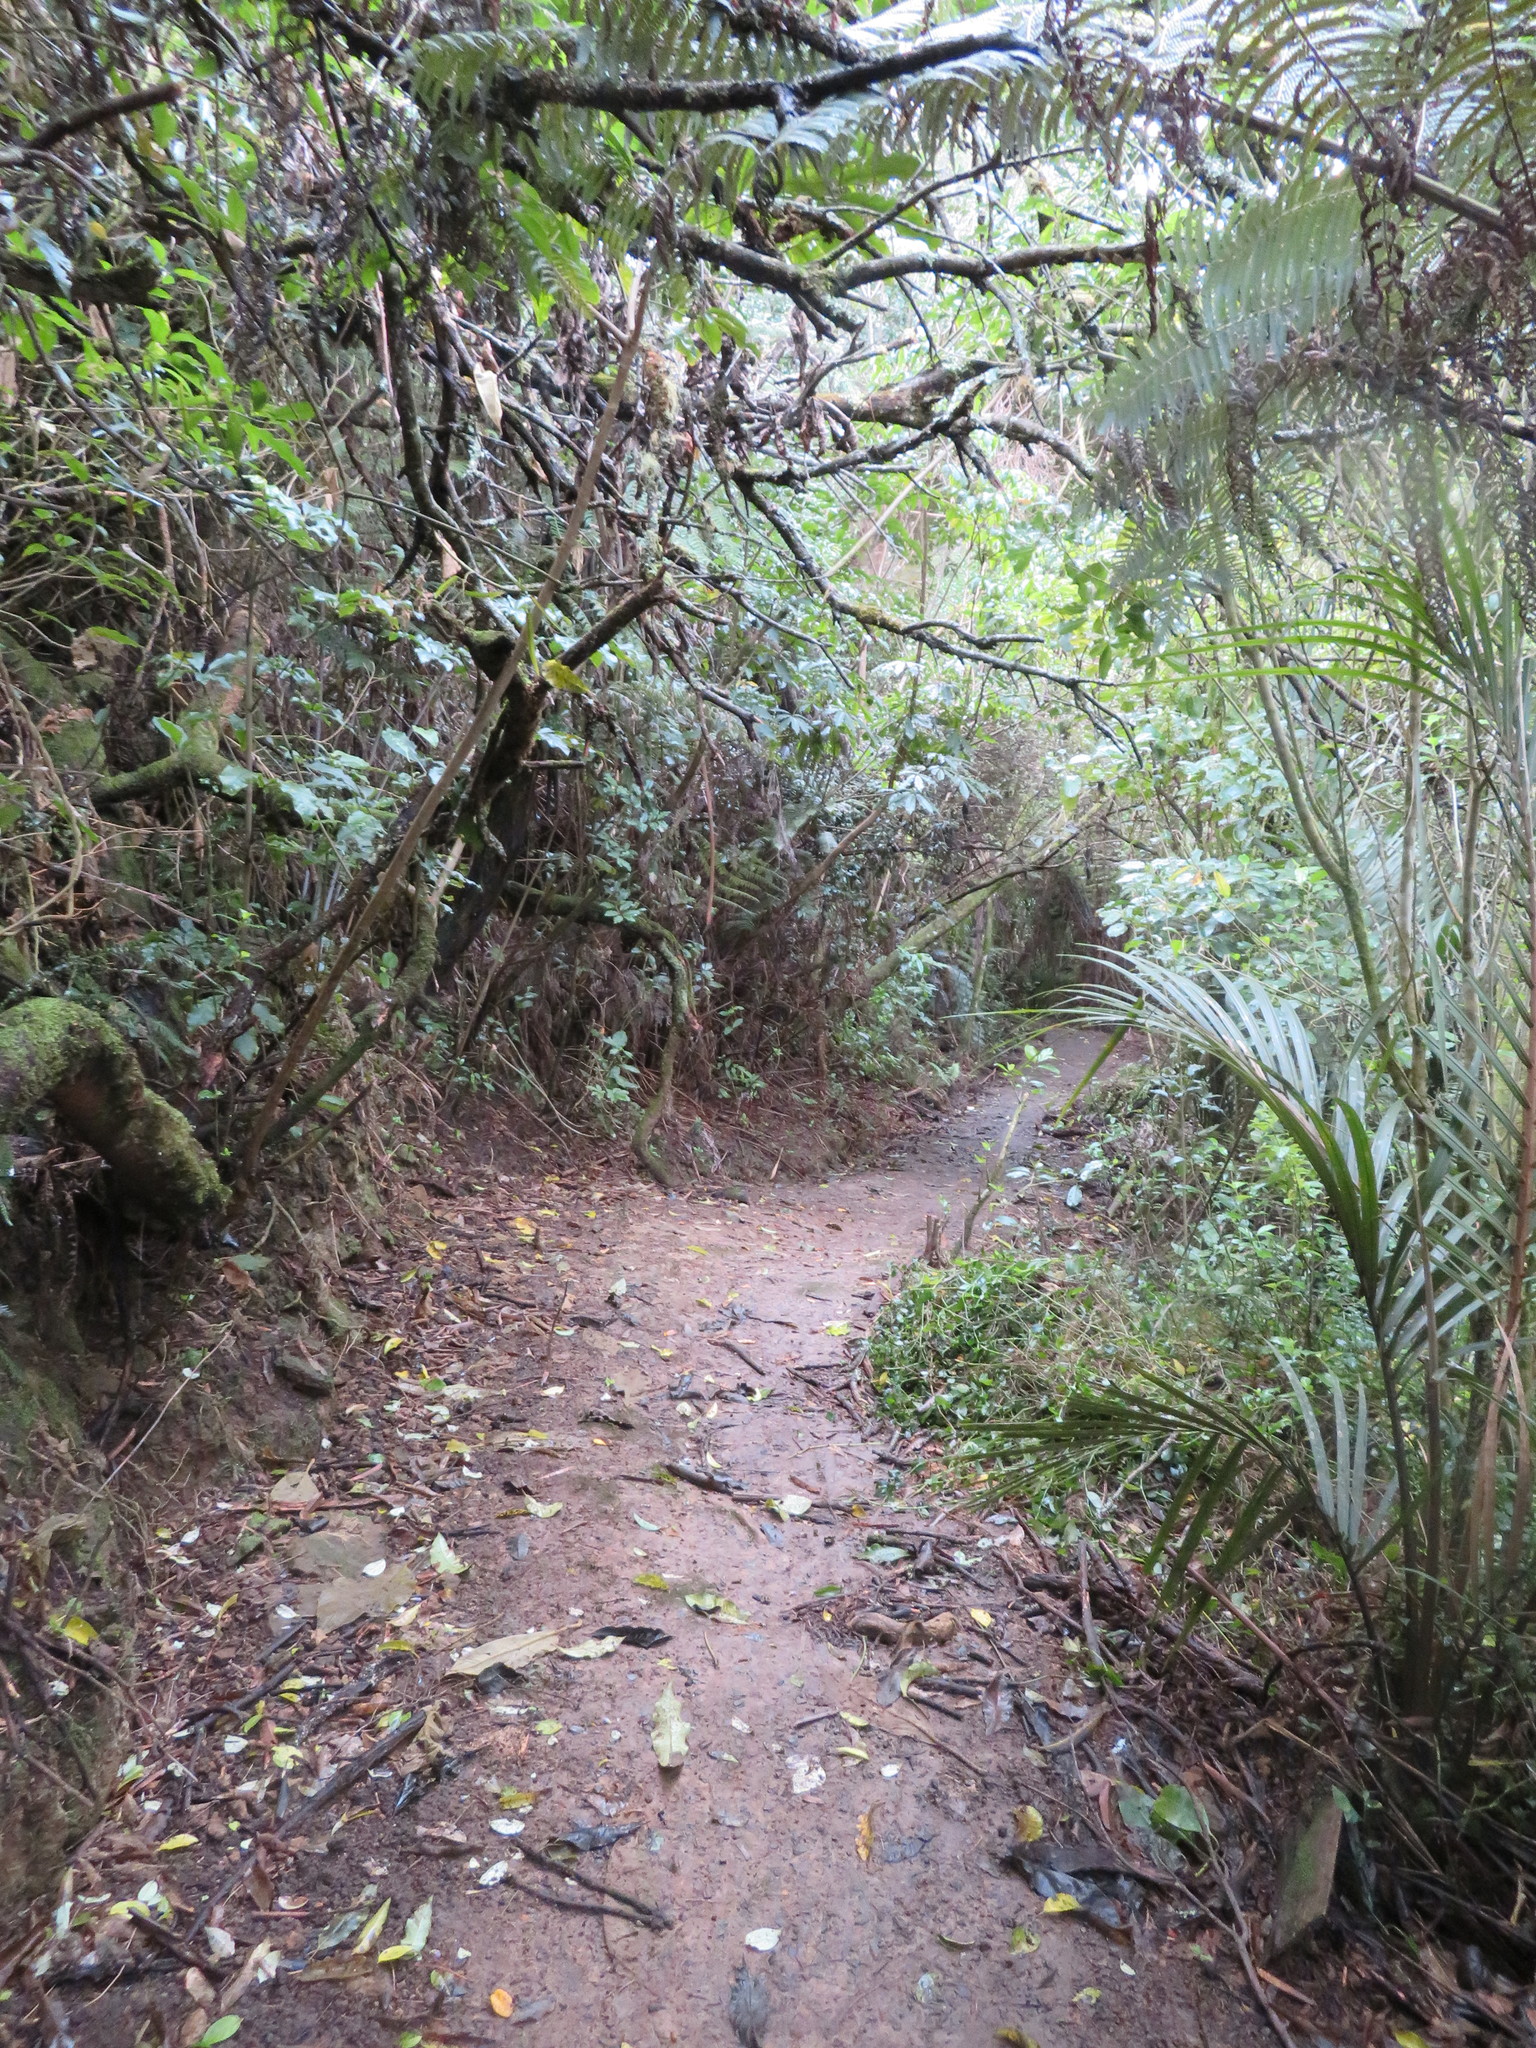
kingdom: Plantae
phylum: Tracheophyta
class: Liliopsida
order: Arecales
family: Arecaceae
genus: Rhopalostylis
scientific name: Rhopalostylis sapida
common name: Feather-duster palm
